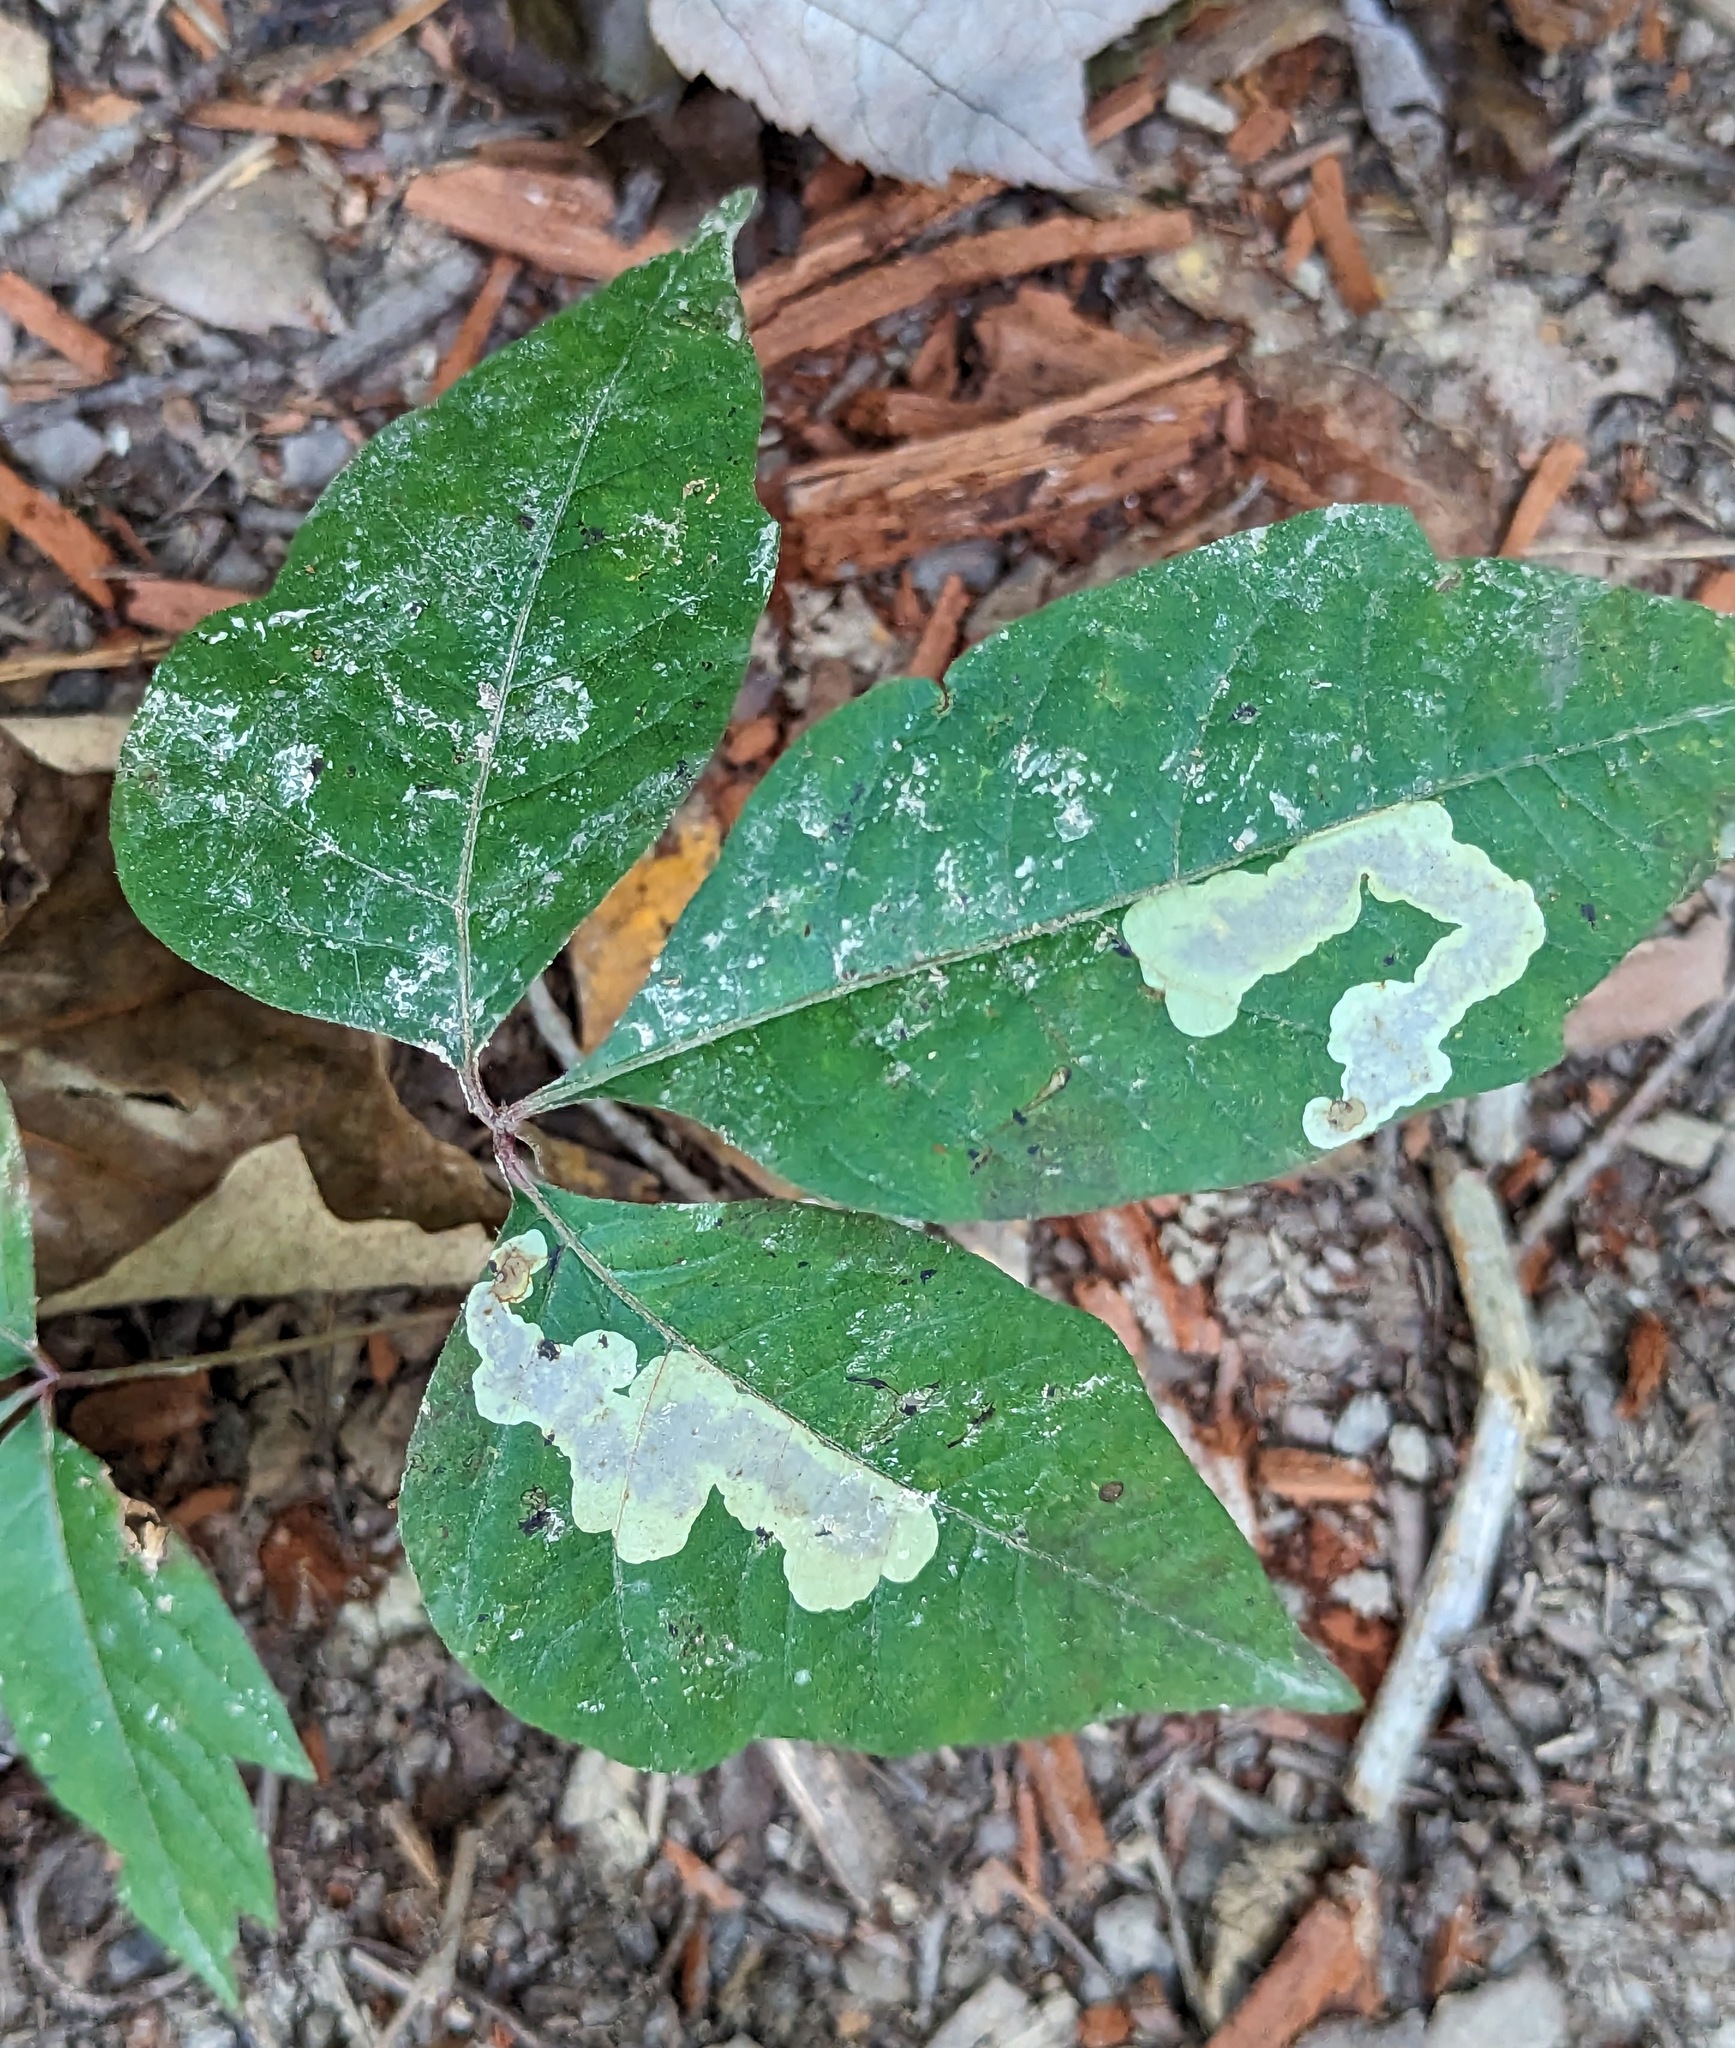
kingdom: Animalia
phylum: Arthropoda
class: Insecta
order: Lepidoptera
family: Gracillariidae
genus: Cameraria
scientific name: Cameraria guttifinitella
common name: Poison ivy leaf-miner moth
